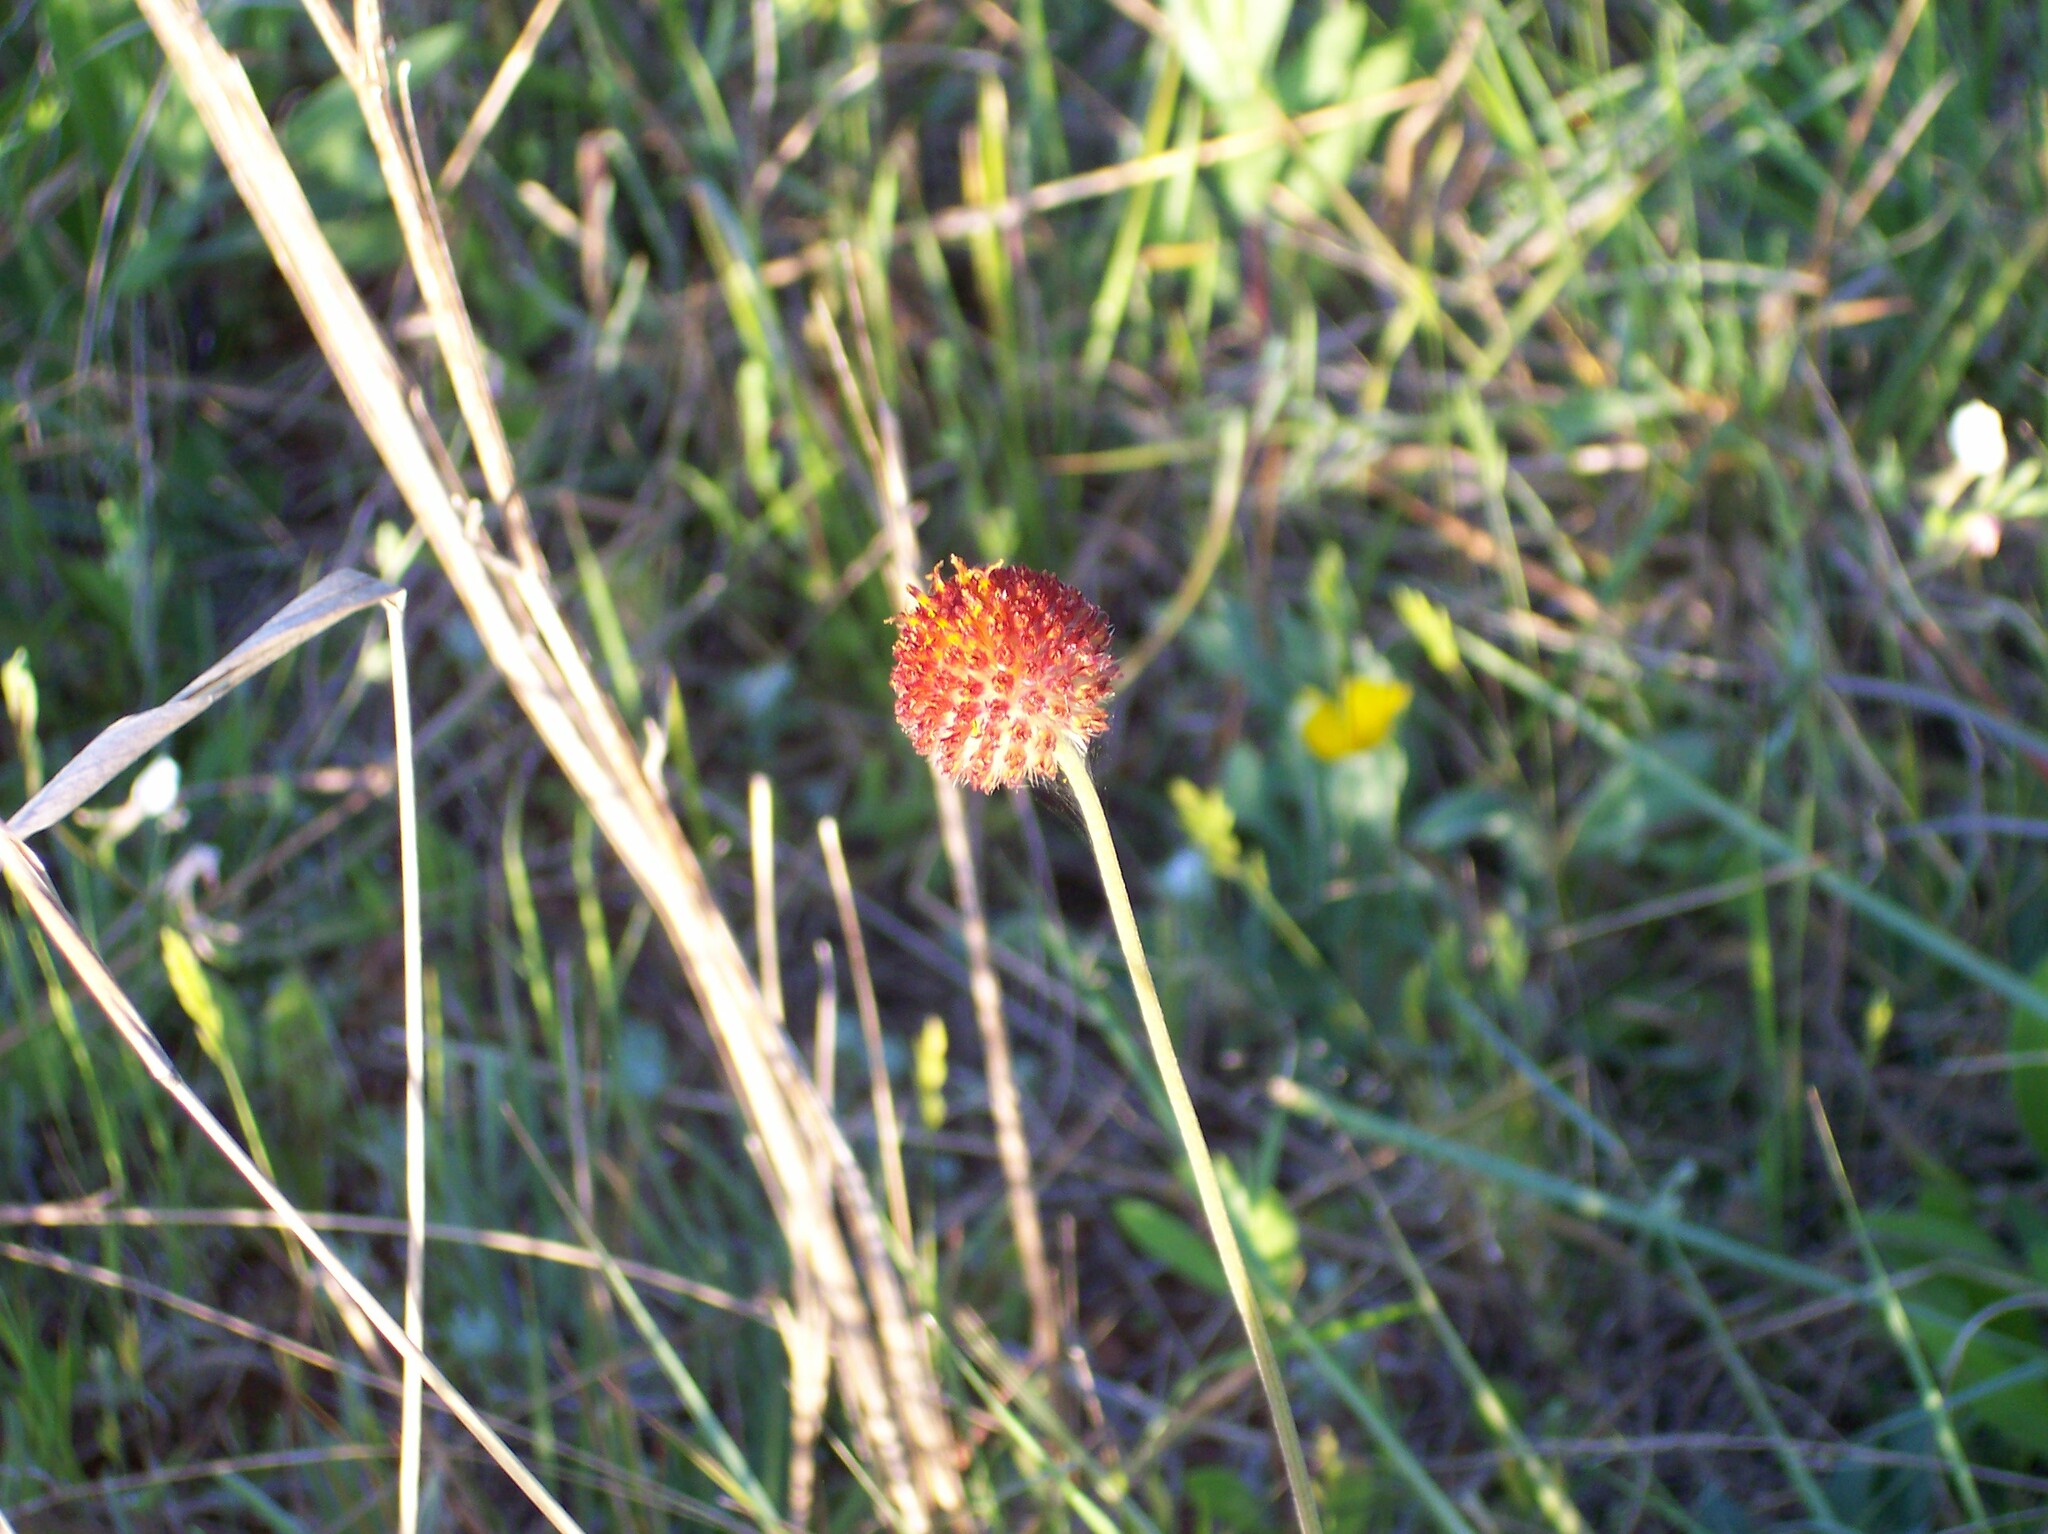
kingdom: Plantae
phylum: Tracheophyta
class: Magnoliopsida
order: Asterales
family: Asteraceae
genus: Gaillardia
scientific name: Gaillardia suavis
